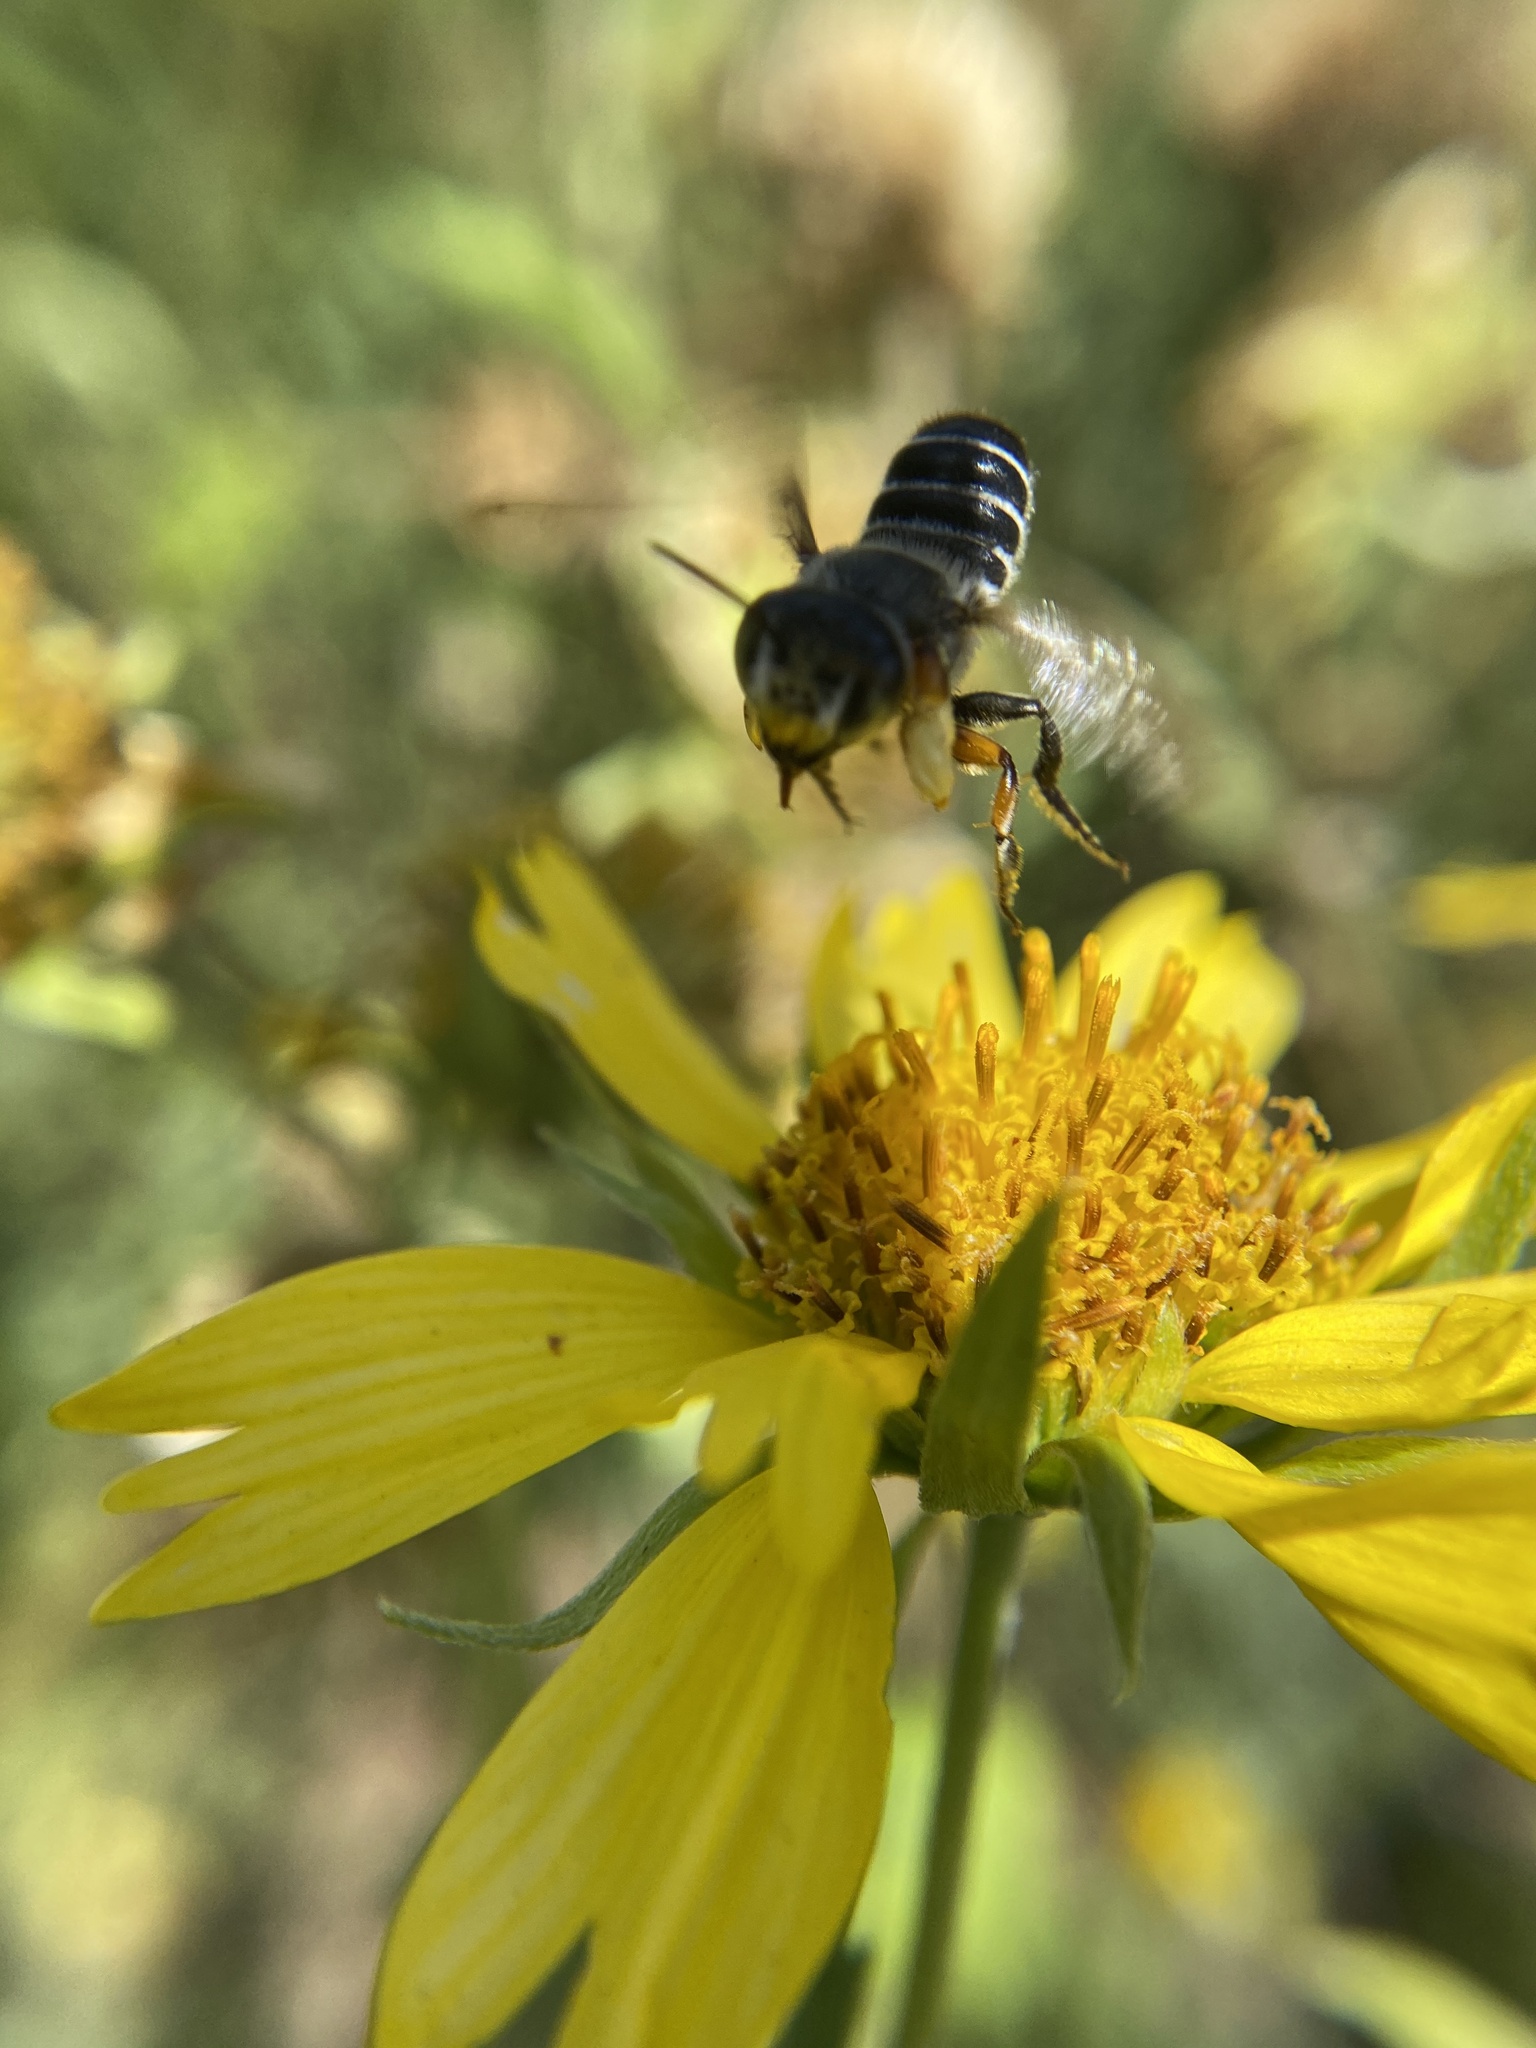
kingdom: Animalia
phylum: Arthropoda
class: Insecta
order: Hymenoptera
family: Megachilidae
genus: Megachile
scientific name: Megachile policaris
